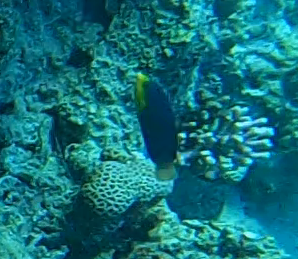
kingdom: Animalia
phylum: Chordata
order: Perciformes
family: Labridae
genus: Anampses
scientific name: Anampses twistii
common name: Yellowbreasted wrasse
